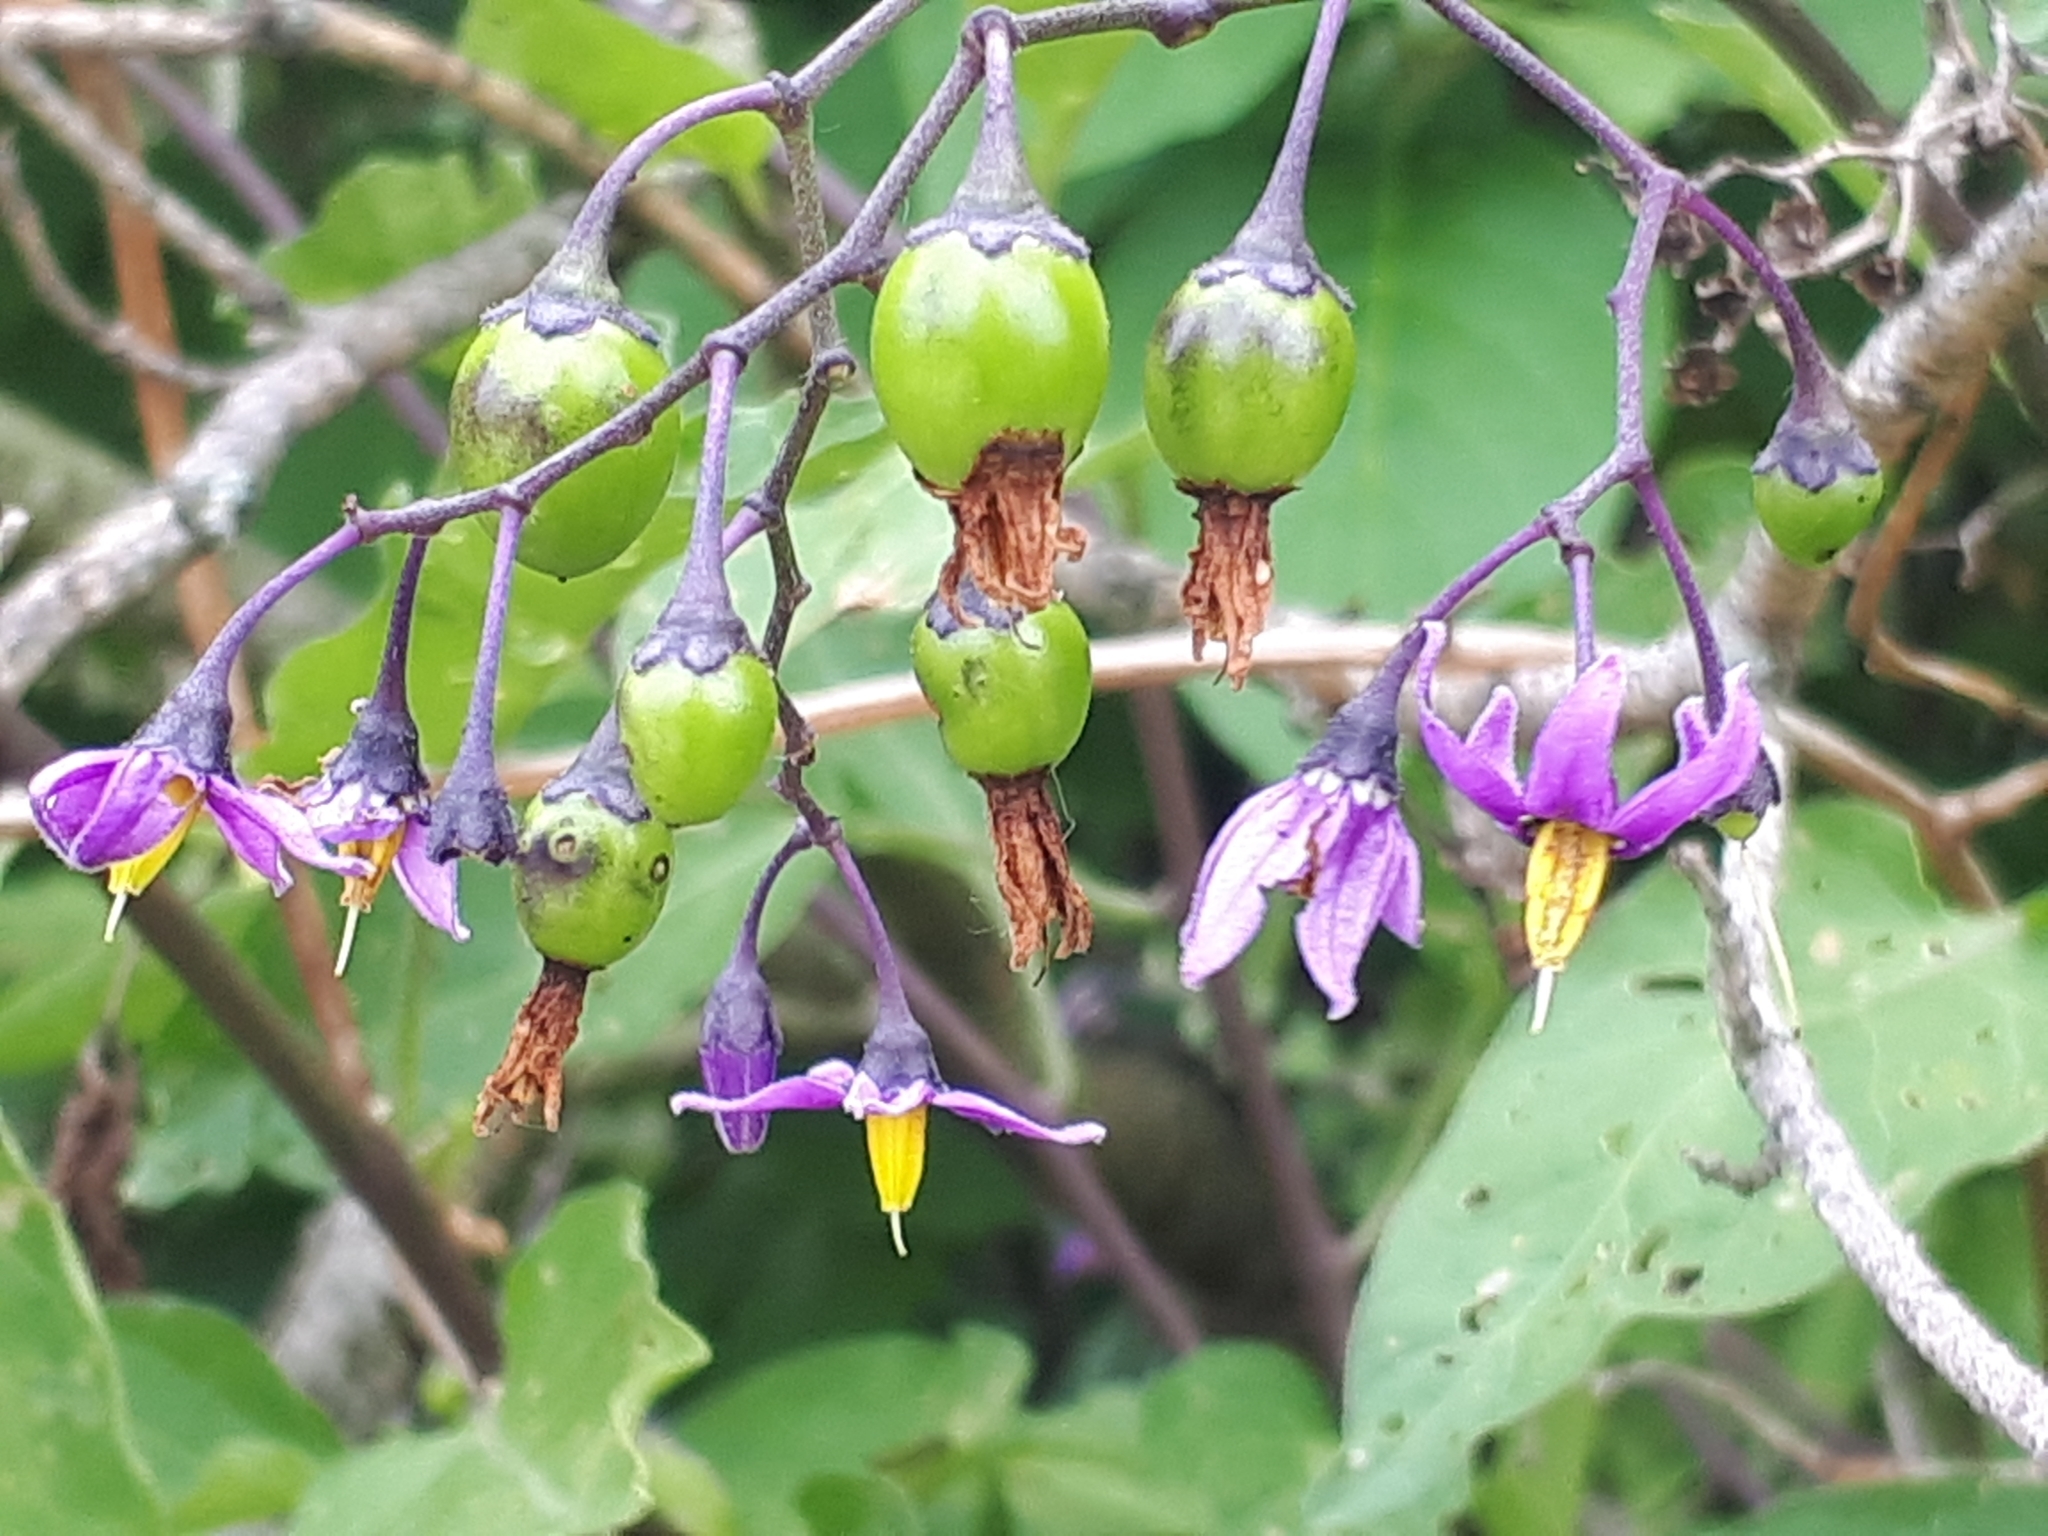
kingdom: Plantae
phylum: Tracheophyta
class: Magnoliopsida
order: Solanales
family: Solanaceae
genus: Solanum
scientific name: Solanum dulcamara
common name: Climbing nightshade
